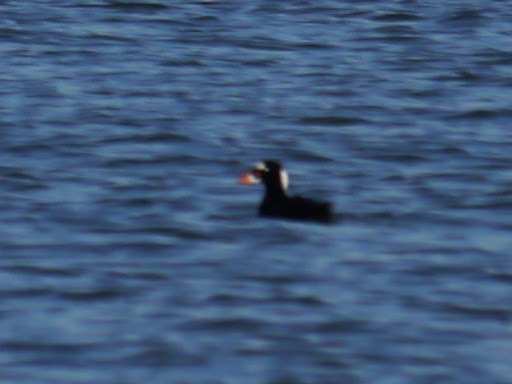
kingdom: Animalia
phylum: Chordata
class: Aves
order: Anseriformes
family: Anatidae
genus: Melanitta
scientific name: Melanitta perspicillata
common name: Surf scoter
